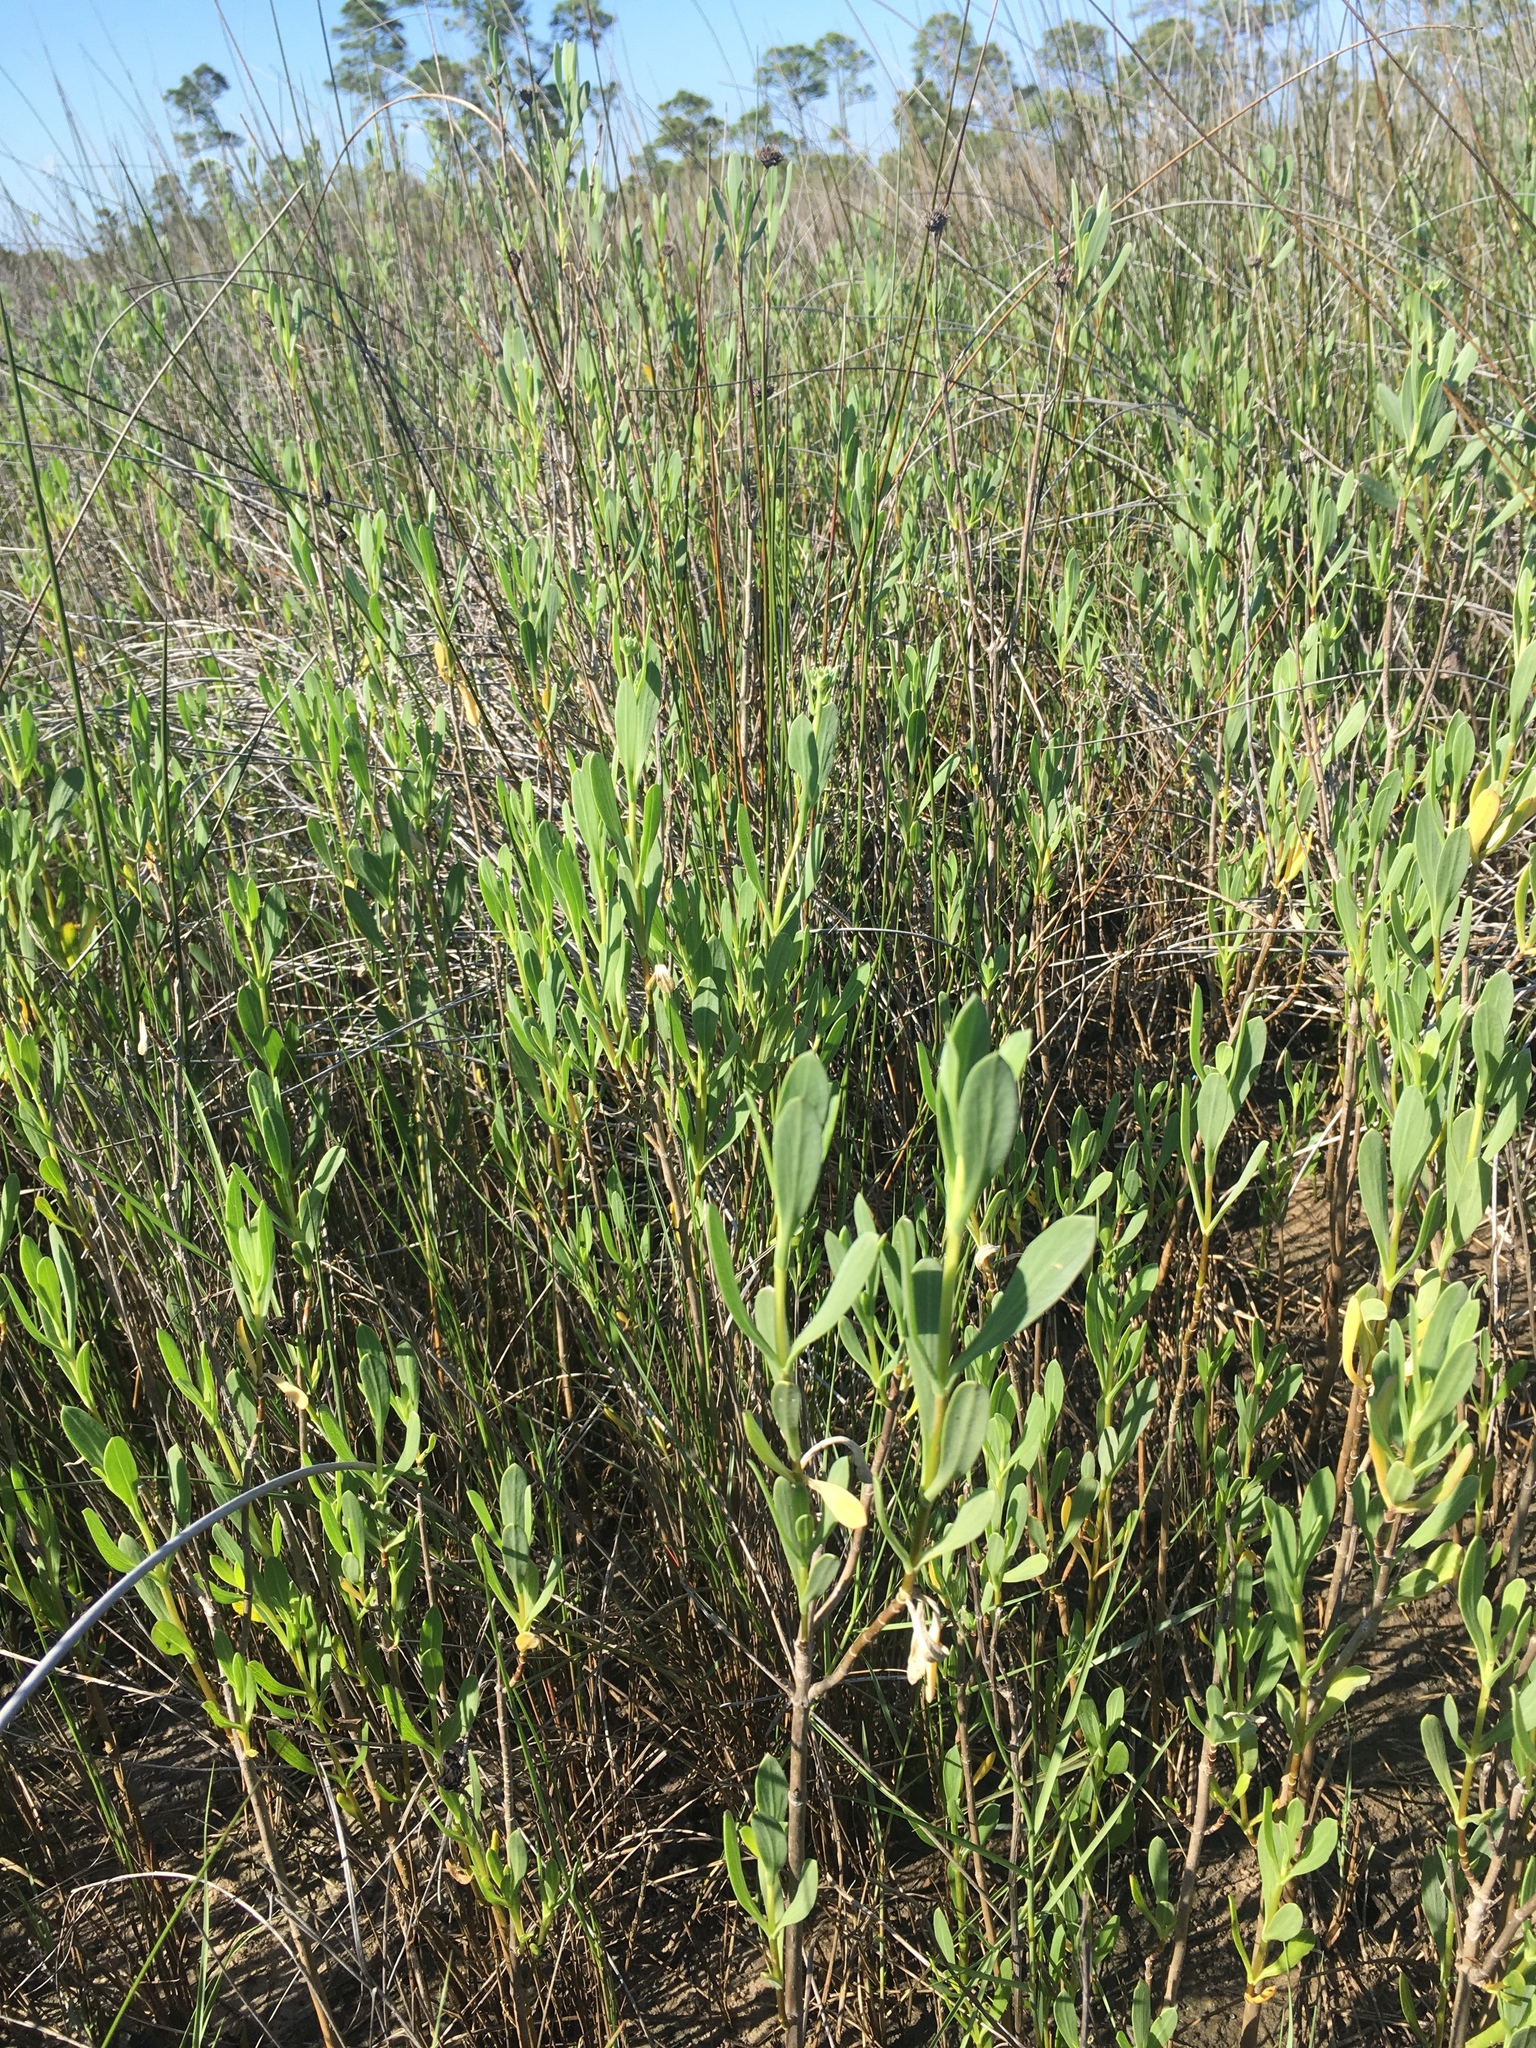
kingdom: Plantae
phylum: Tracheophyta
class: Magnoliopsida
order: Asterales
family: Asteraceae
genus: Borrichia
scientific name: Borrichia frutescens
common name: Sea oxeye
